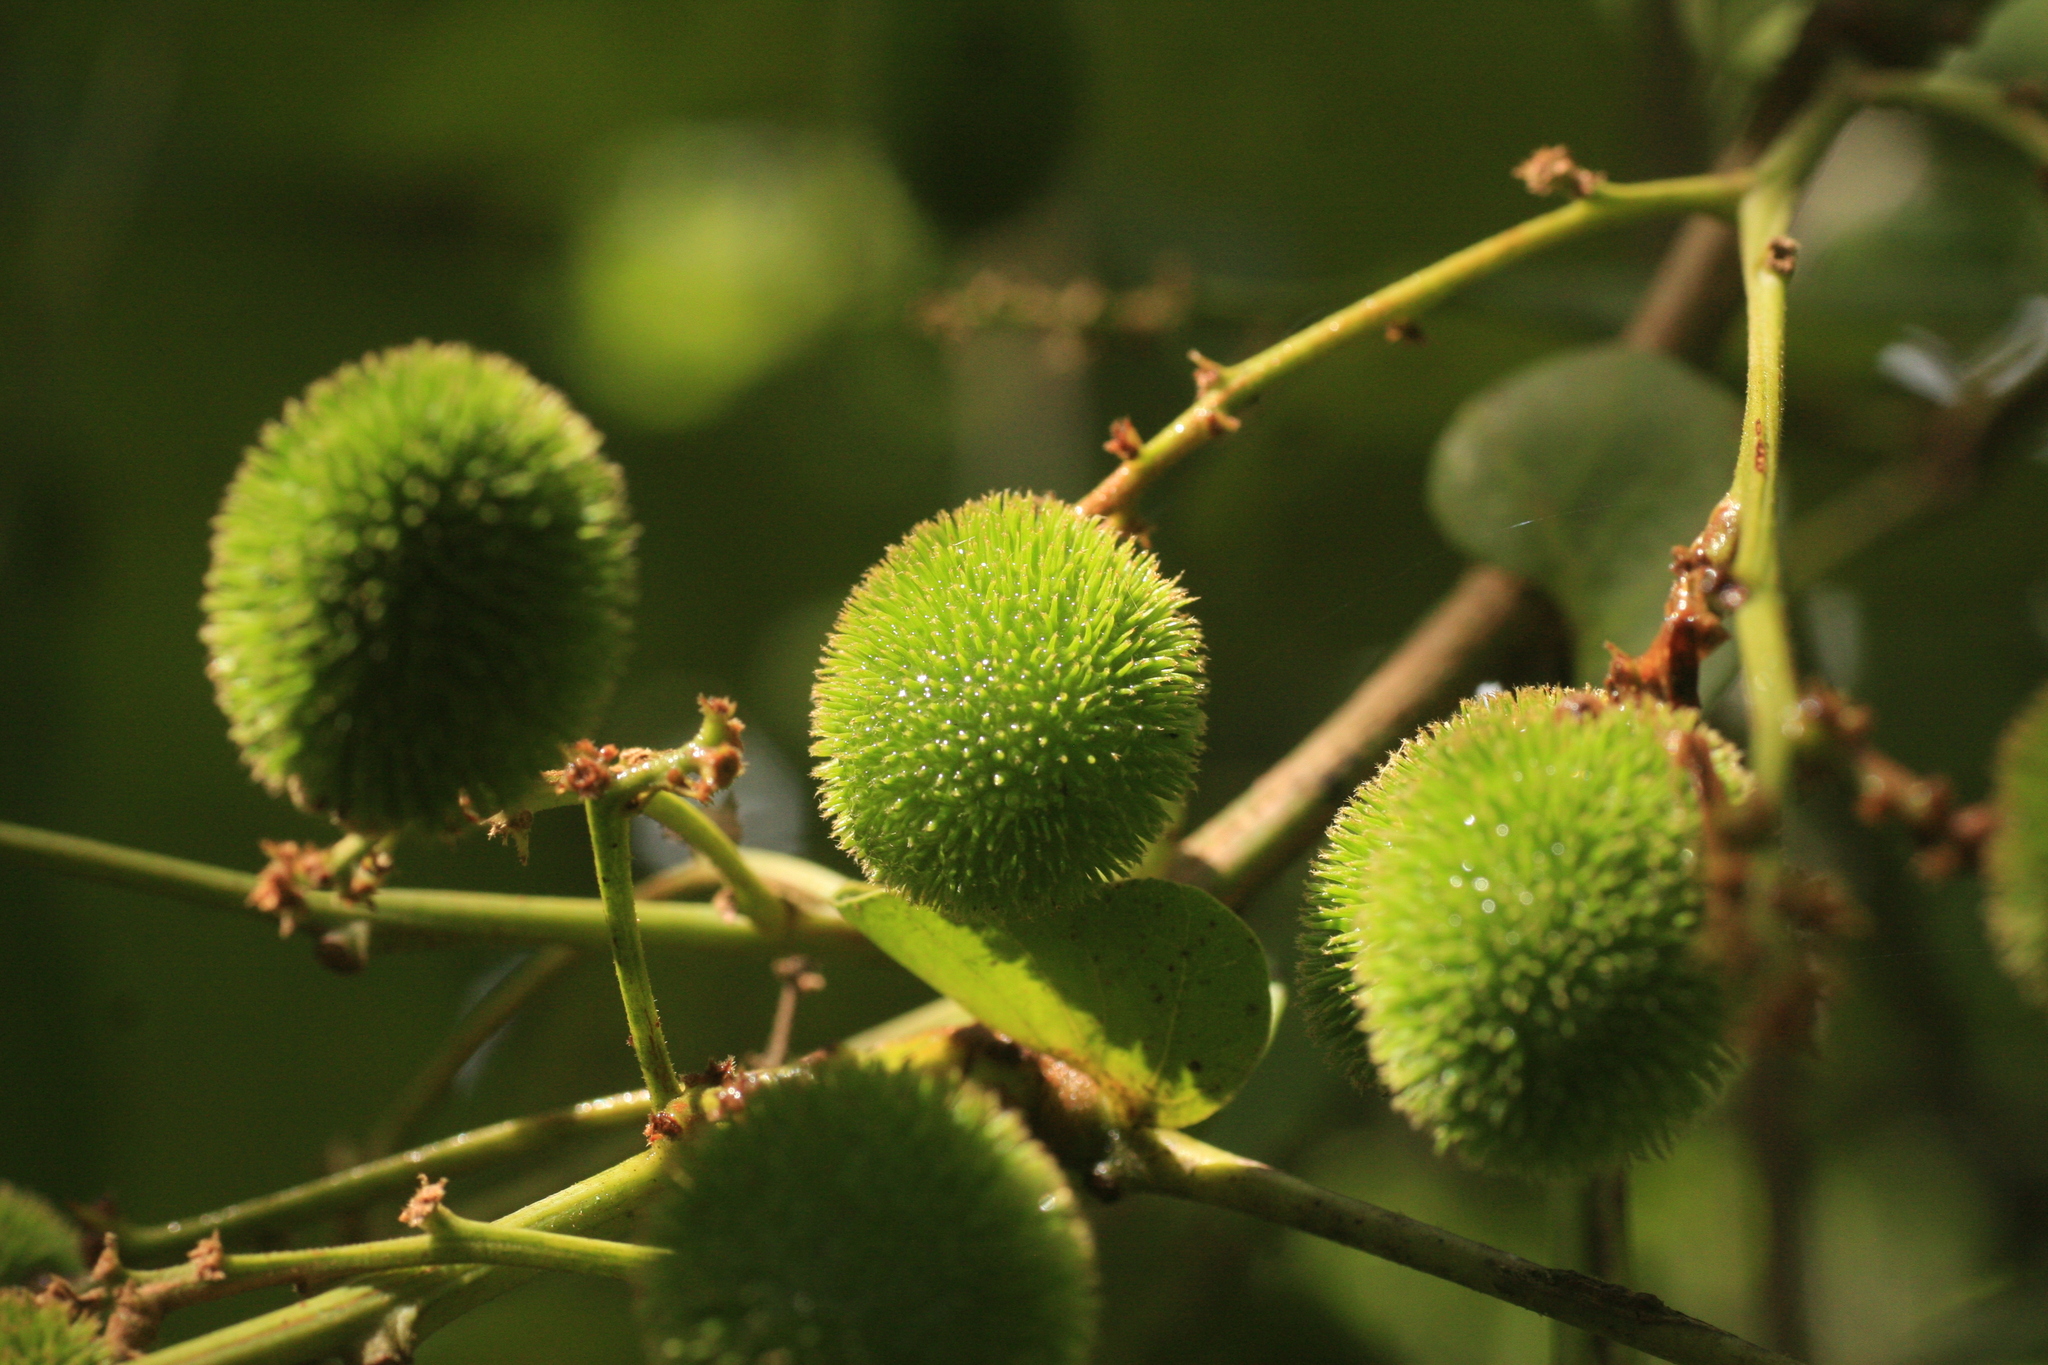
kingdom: Plantae
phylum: Tracheophyta
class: Magnoliopsida
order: Sapindales
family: Sapindaceae
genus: Otonephelium
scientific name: Otonephelium stipulaceum
